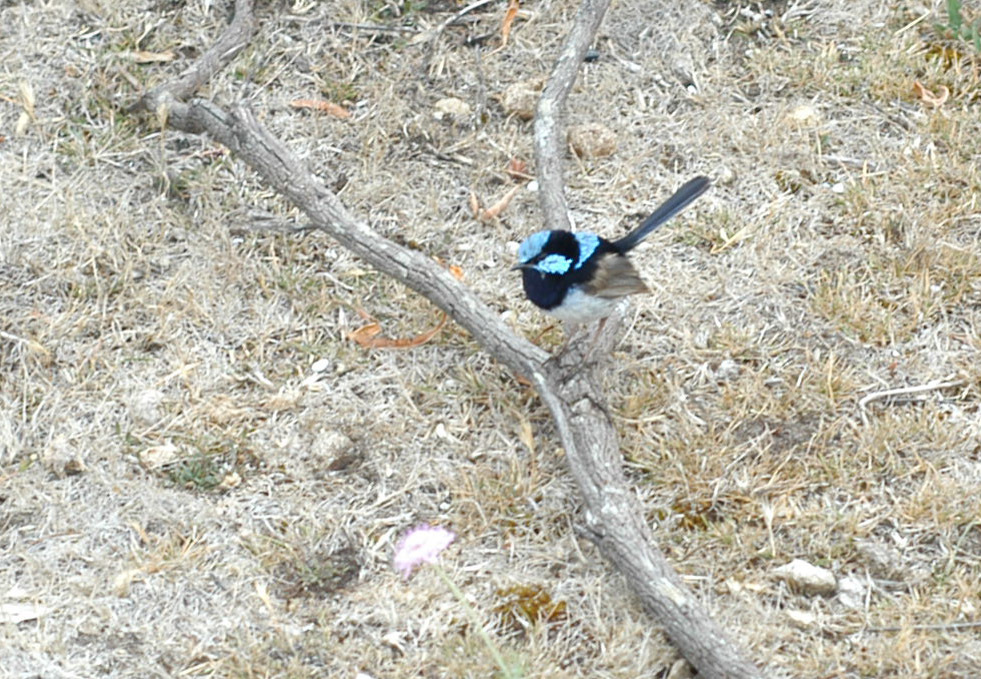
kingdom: Animalia
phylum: Chordata
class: Aves
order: Passeriformes
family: Maluridae
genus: Malurus
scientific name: Malurus cyaneus
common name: Superb fairywren
